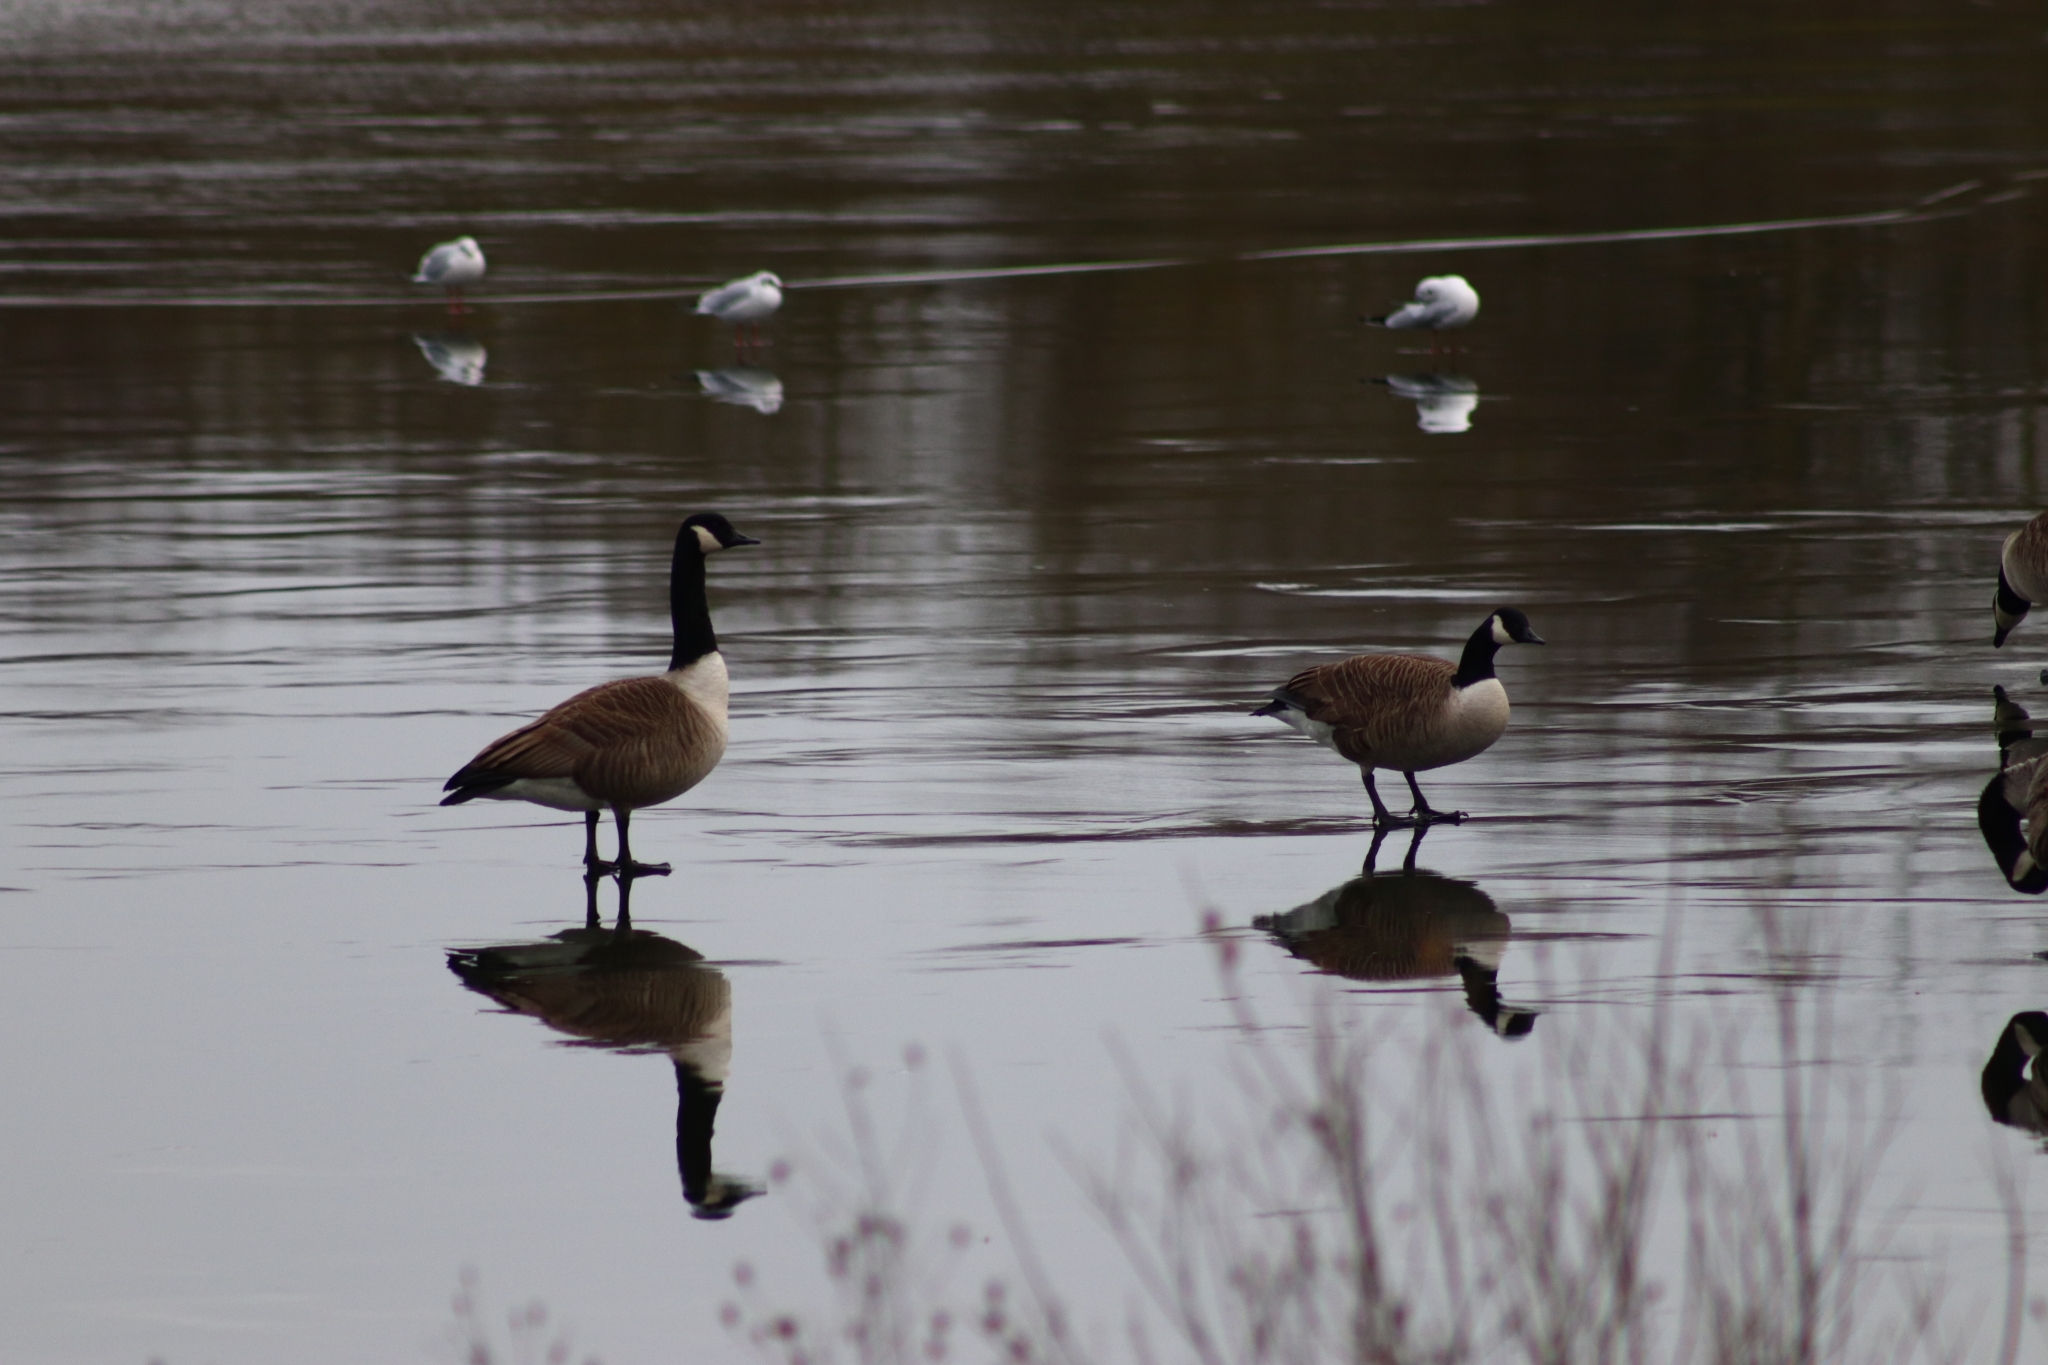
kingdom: Animalia
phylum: Chordata
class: Aves
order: Anseriformes
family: Anatidae
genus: Branta
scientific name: Branta canadensis
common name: Canada goose
